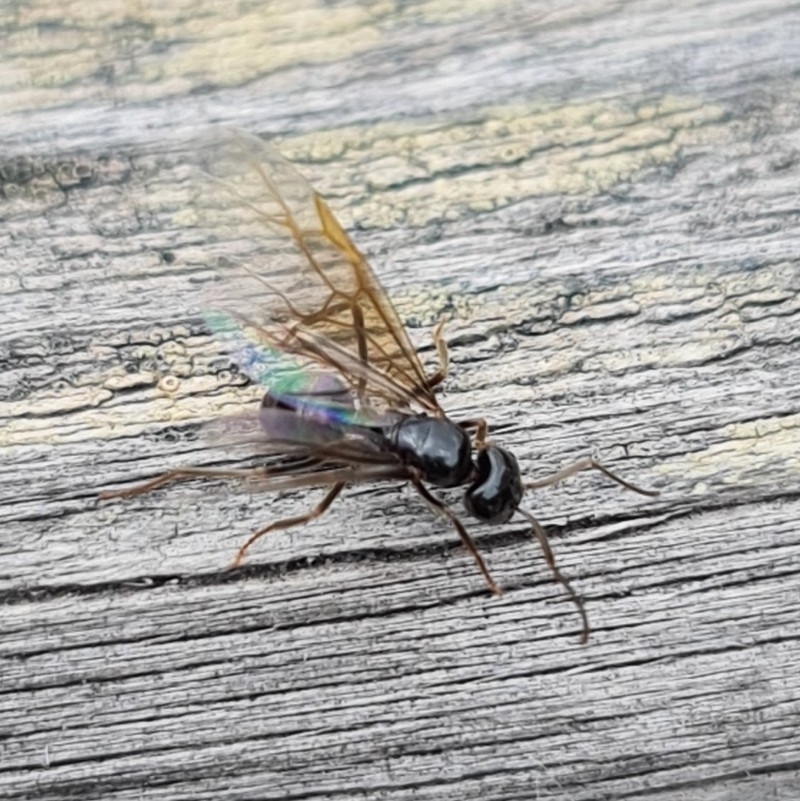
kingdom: Animalia
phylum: Arthropoda
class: Insecta
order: Hymenoptera
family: Formicidae
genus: Lasius
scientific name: Lasius fuliginosus
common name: Jet ant
